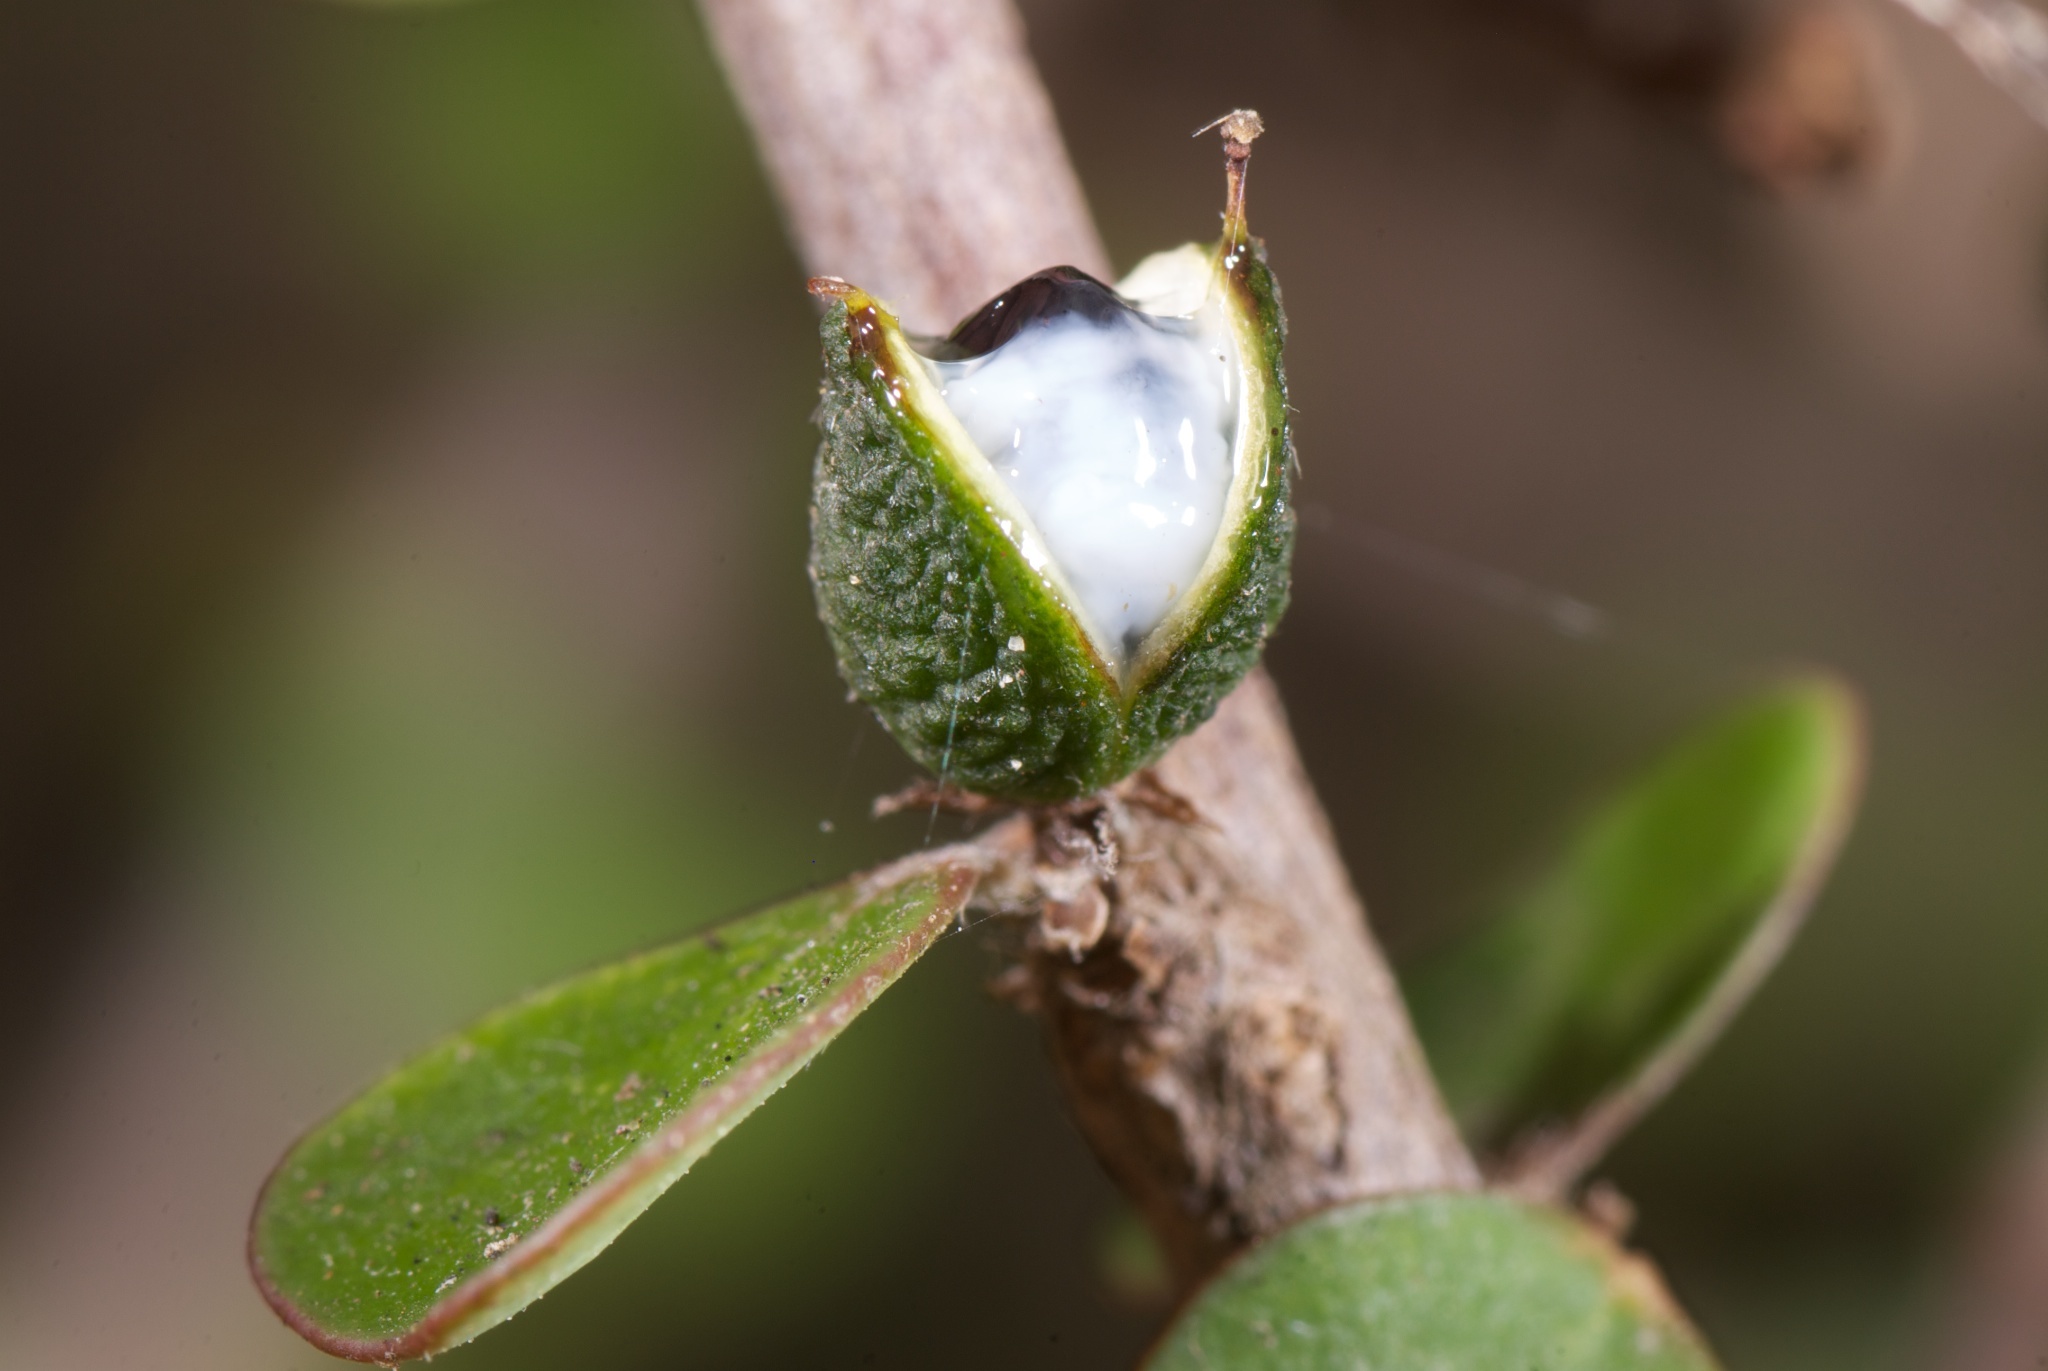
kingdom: Plantae
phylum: Tracheophyta
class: Magnoliopsida
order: Apiales
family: Pittosporaceae
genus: Pittosporum
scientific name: Pittosporum obcordatum
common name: Heart-leaved kohuhu
